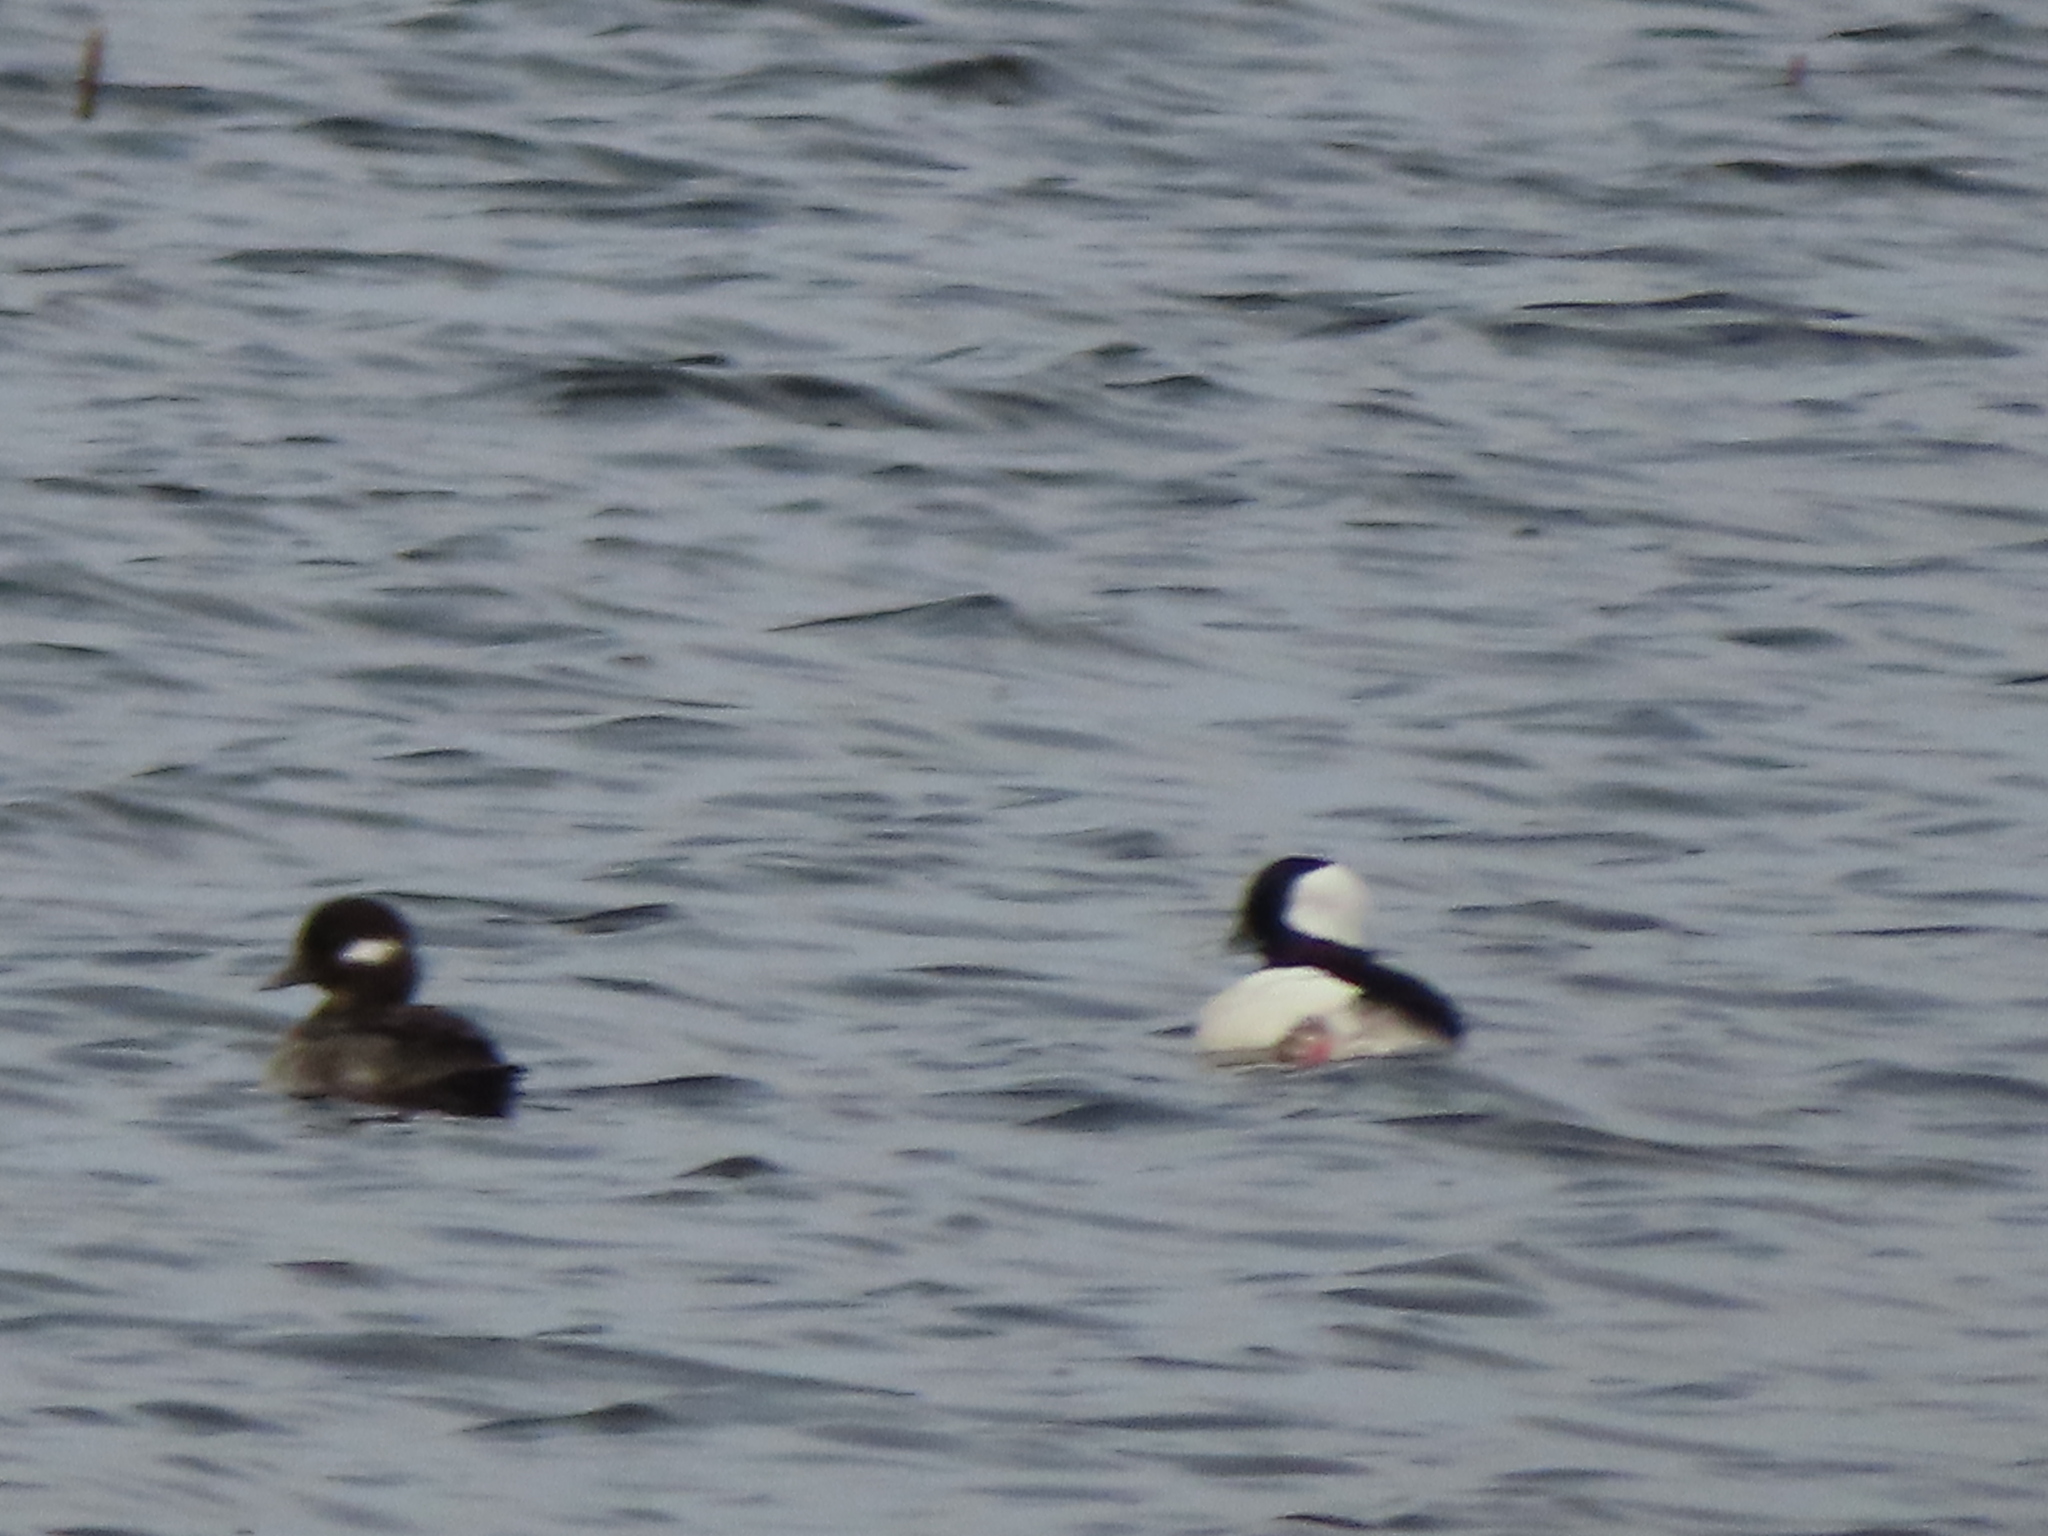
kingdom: Animalia
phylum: Chordata
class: Aves
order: Anseriformes
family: Anatidae
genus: Bucephala
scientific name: Bucephala albeola
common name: Bufflehead
